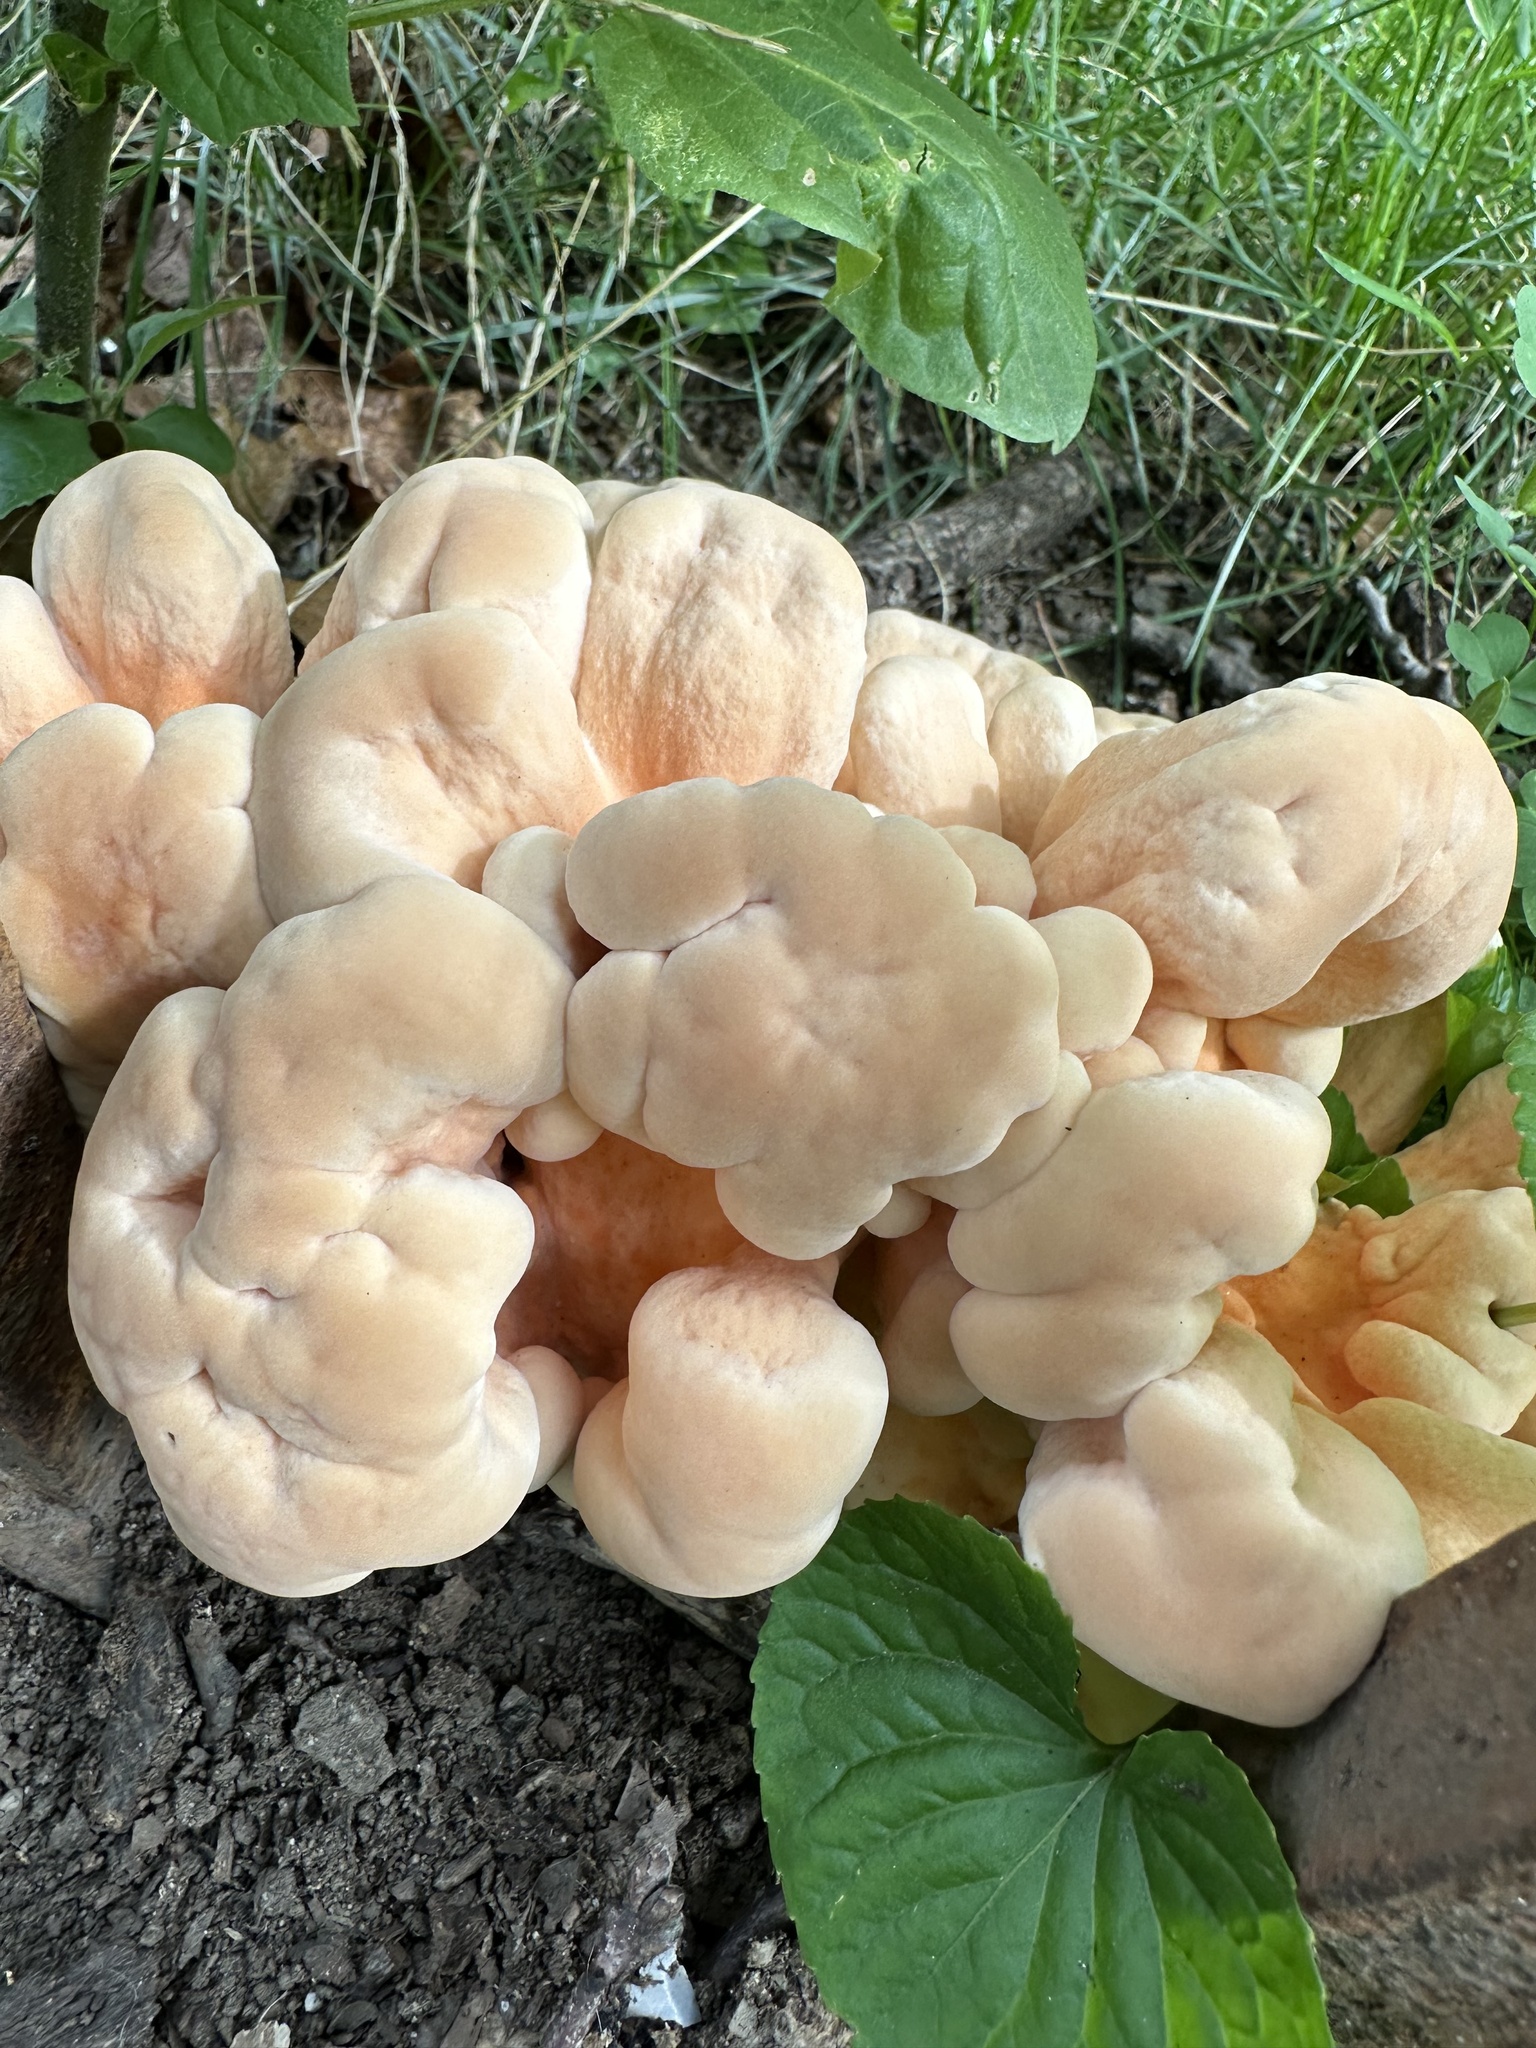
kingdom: Fungi
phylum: Basidiomycota
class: Agaricomycetes
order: Polyporales
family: Laetiporaceae
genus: Laetiporus
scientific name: Laetiporus sulphureus
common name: Chicken of the woods
